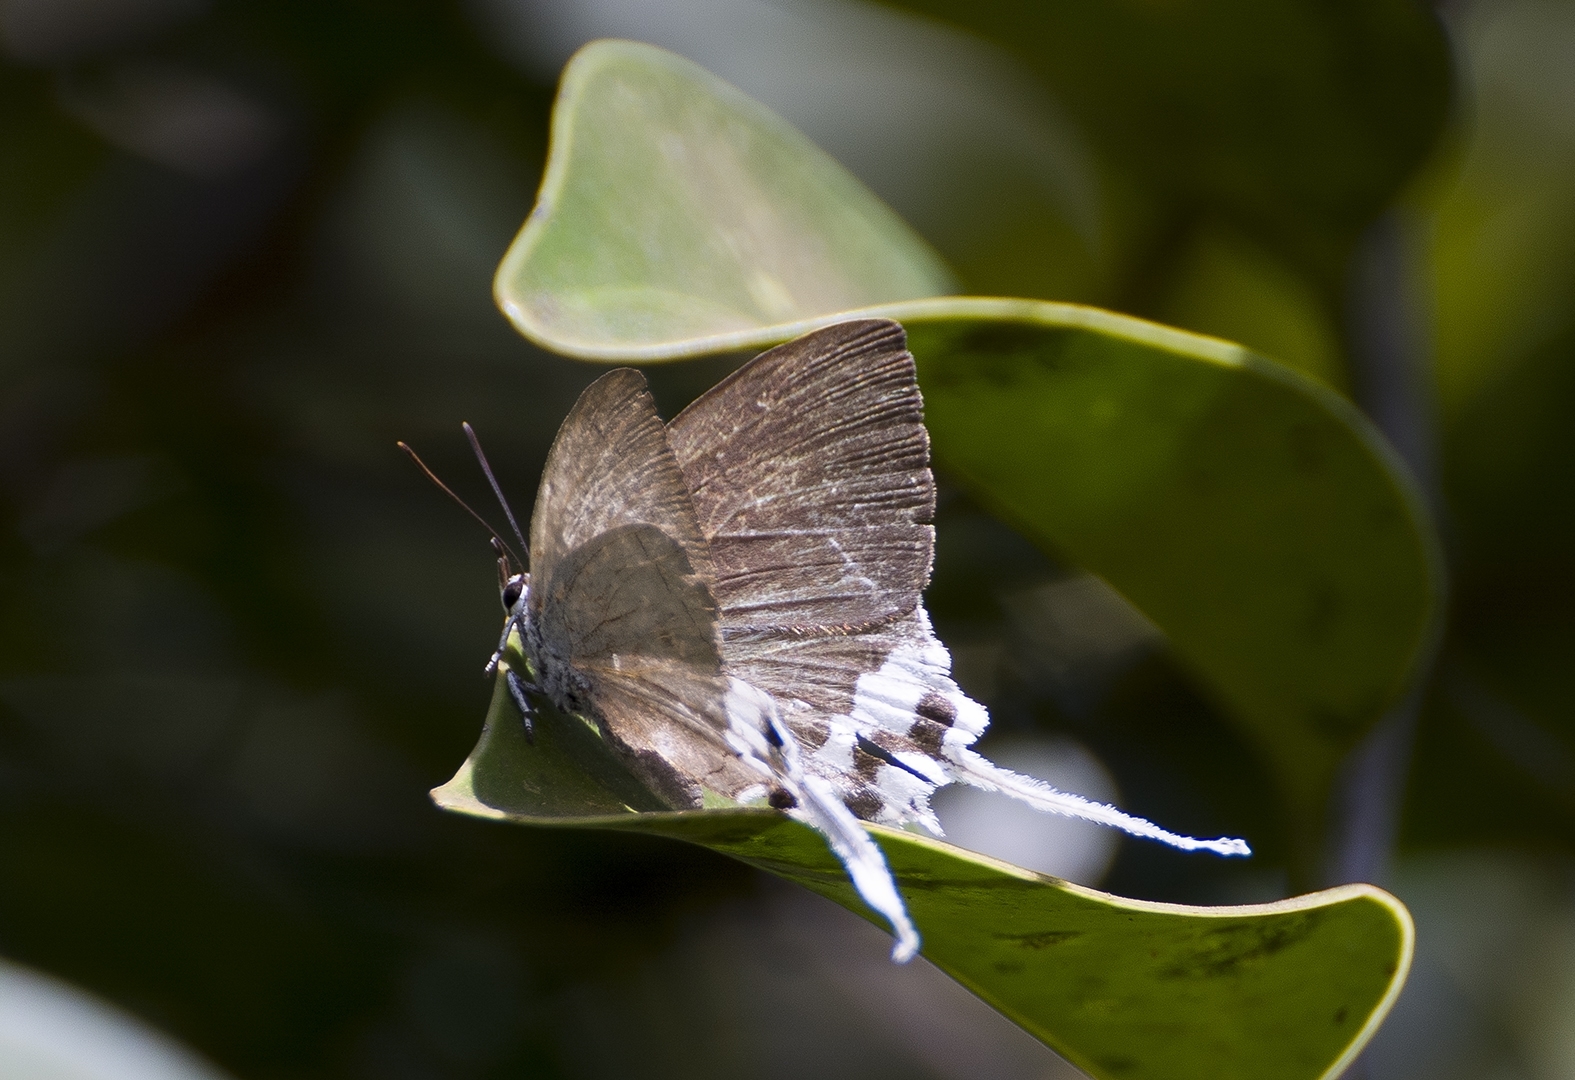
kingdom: Animalia
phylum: Arthropoda
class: Insecta
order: Lepidoptera
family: Lycaenidae
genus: Cheritra
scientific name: Cheritra freja
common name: Common imperial
